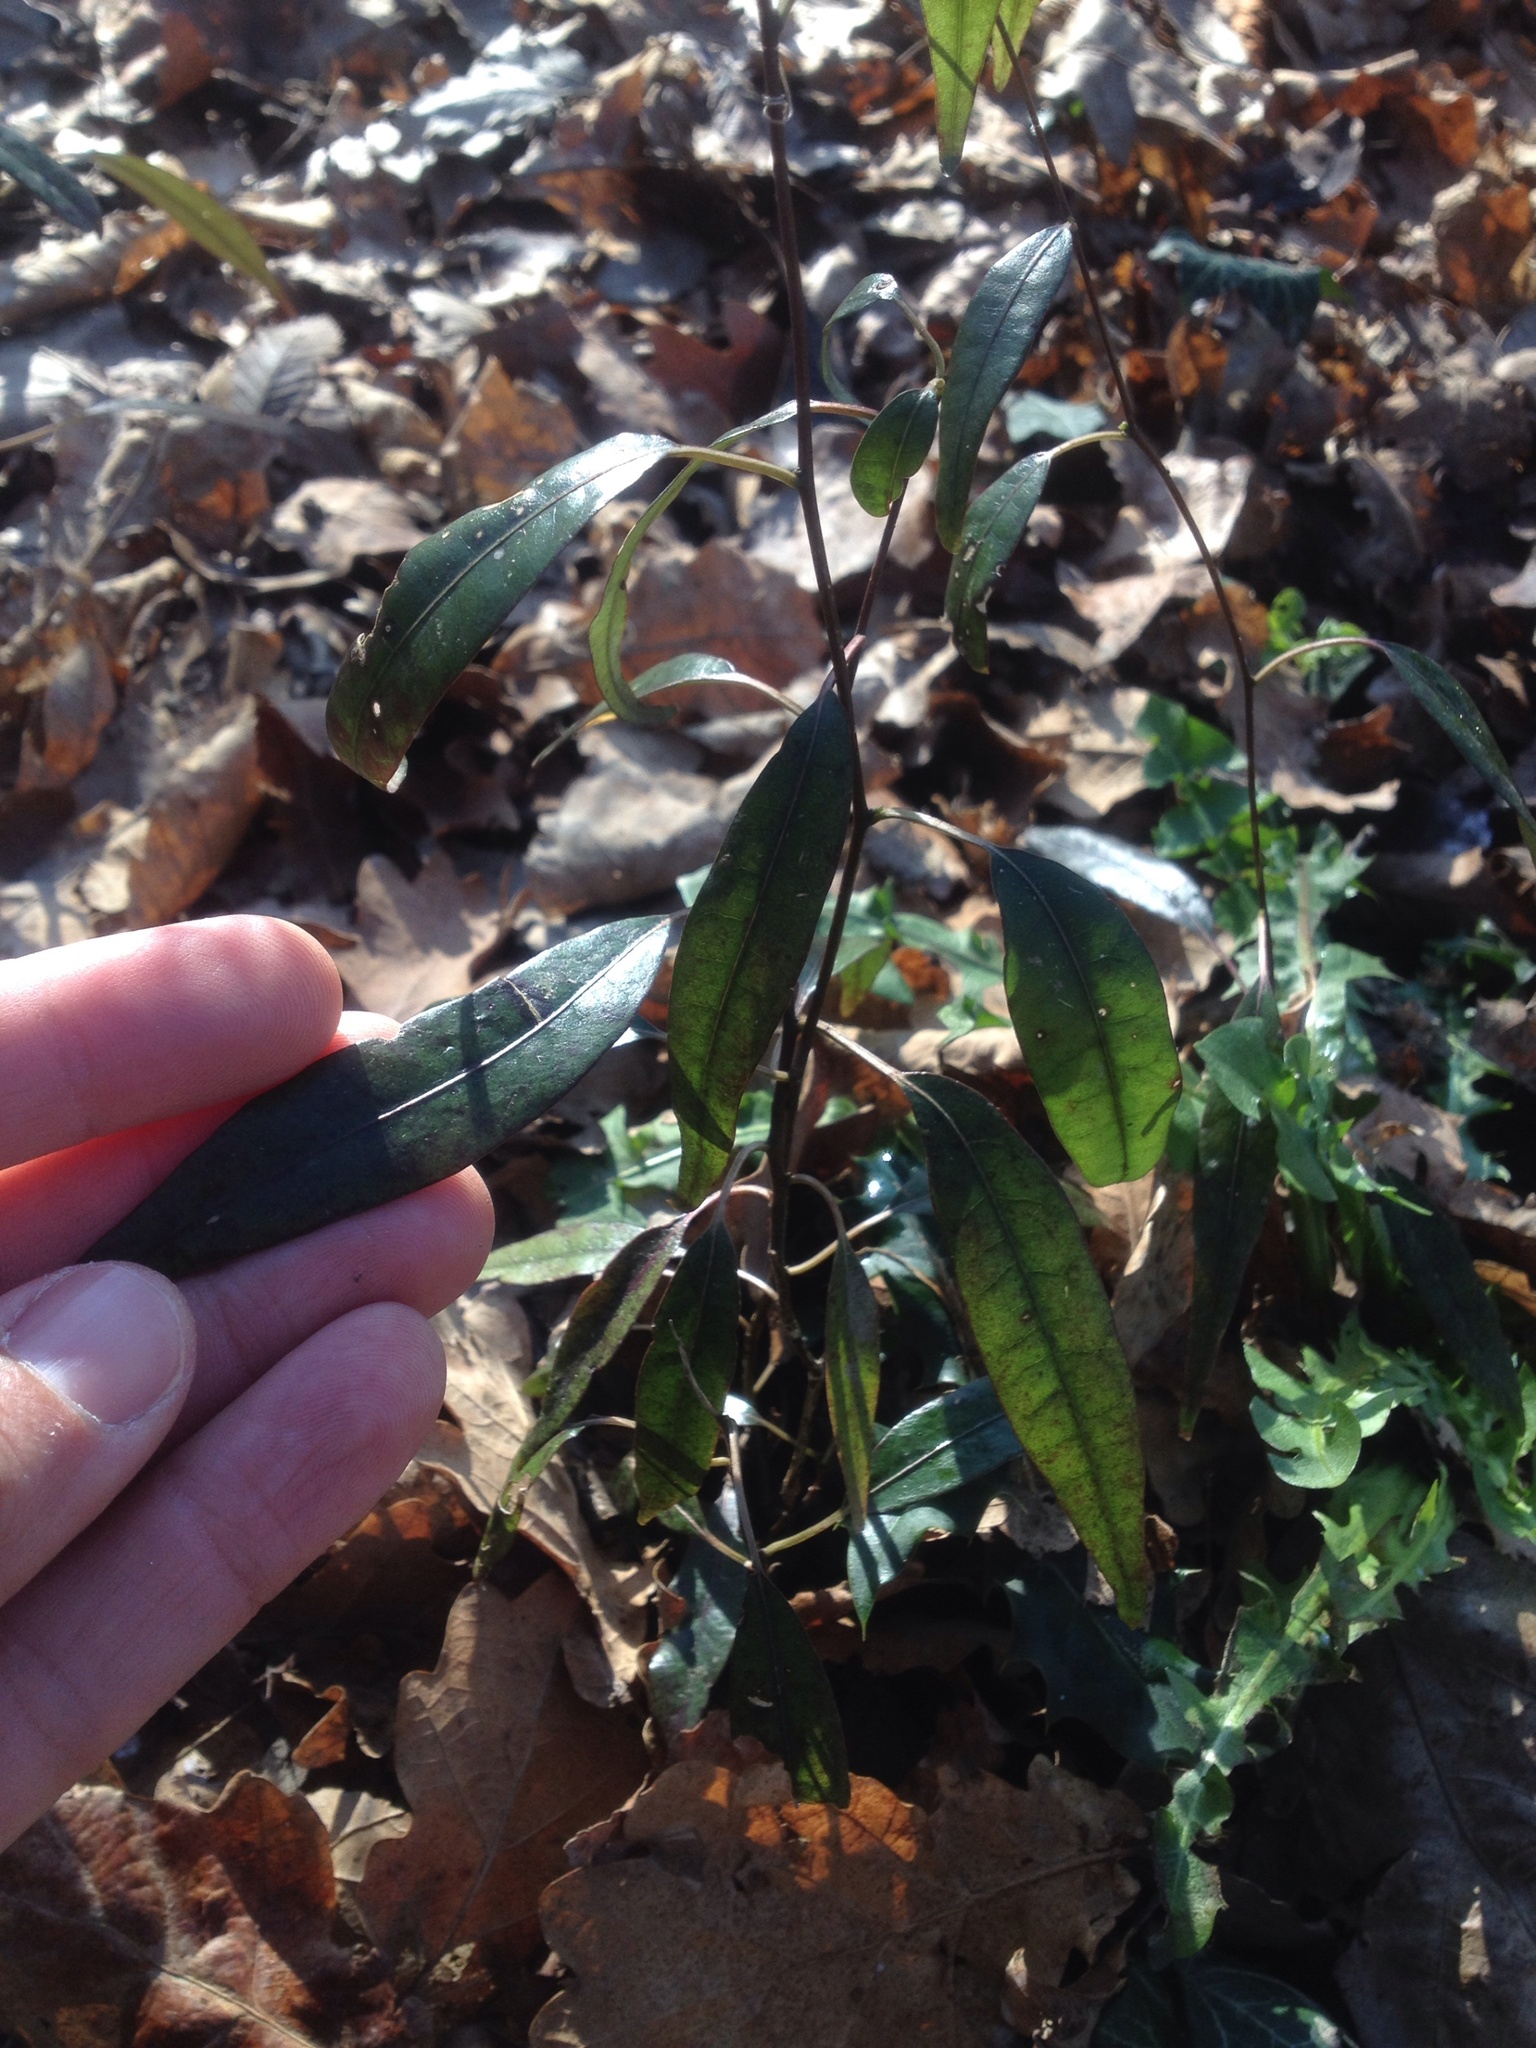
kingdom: Plantae
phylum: Tracheophyta
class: Magnoliopsida
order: Malpighiales
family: Passifloraceae
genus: Passiflora
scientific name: Passiflora tetrandra
